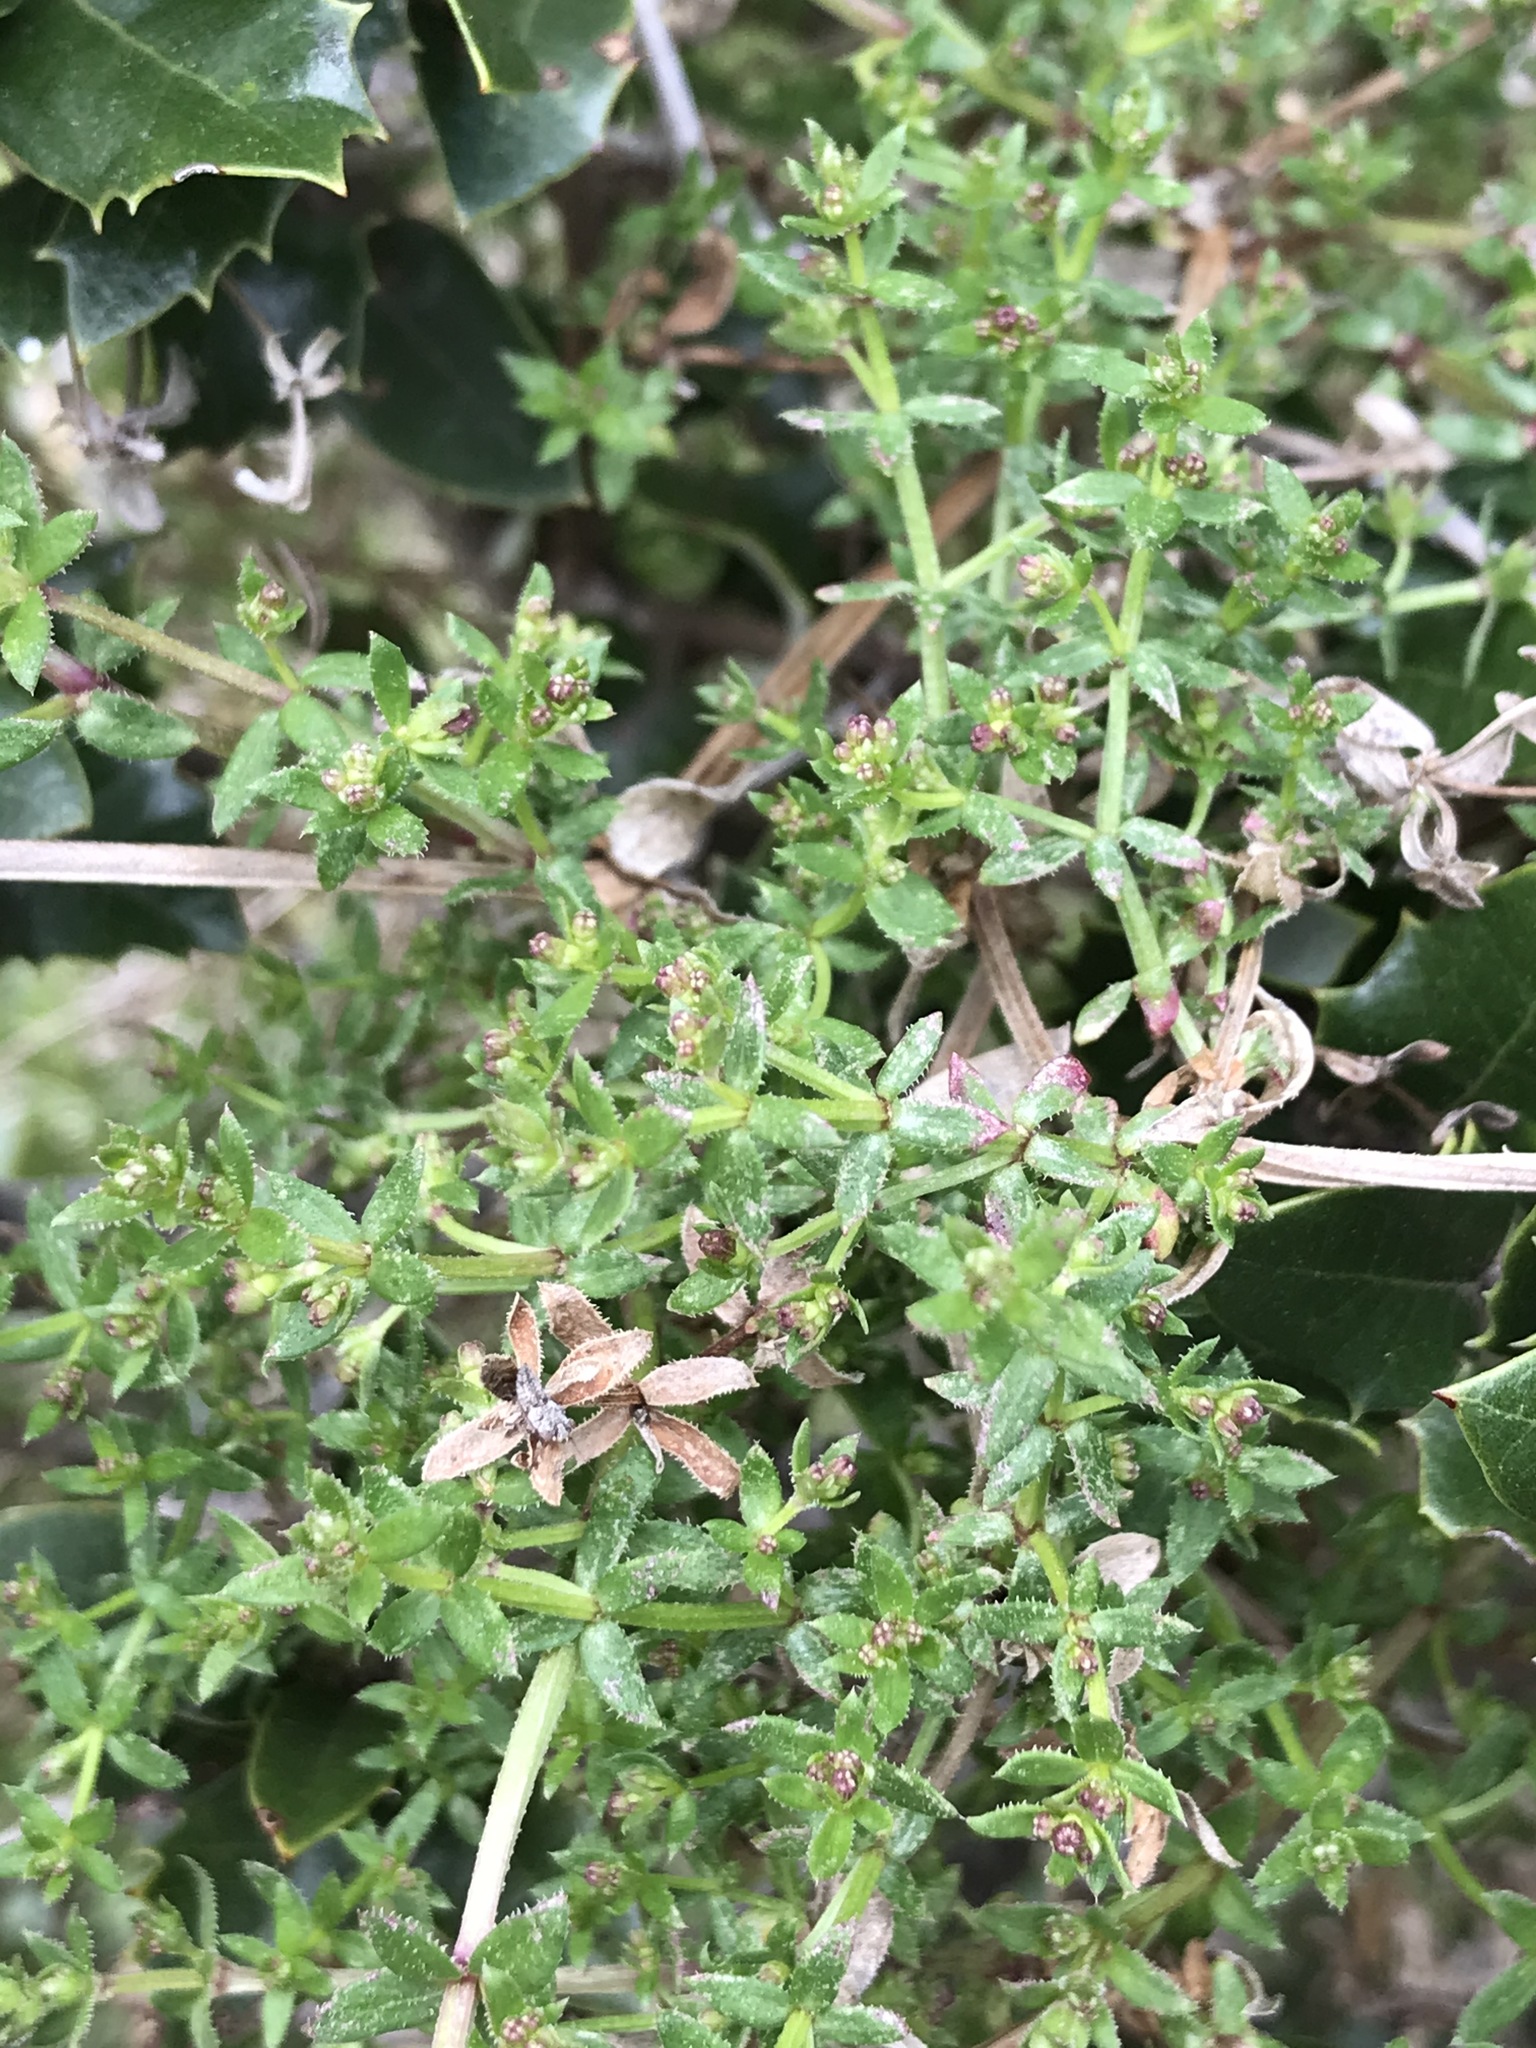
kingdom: Plantae
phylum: Tracheophyta
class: Magnoliopsida
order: Gentianales
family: Rubiaceae
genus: Galium
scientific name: Galium porrigens
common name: Climbing bedstraw
